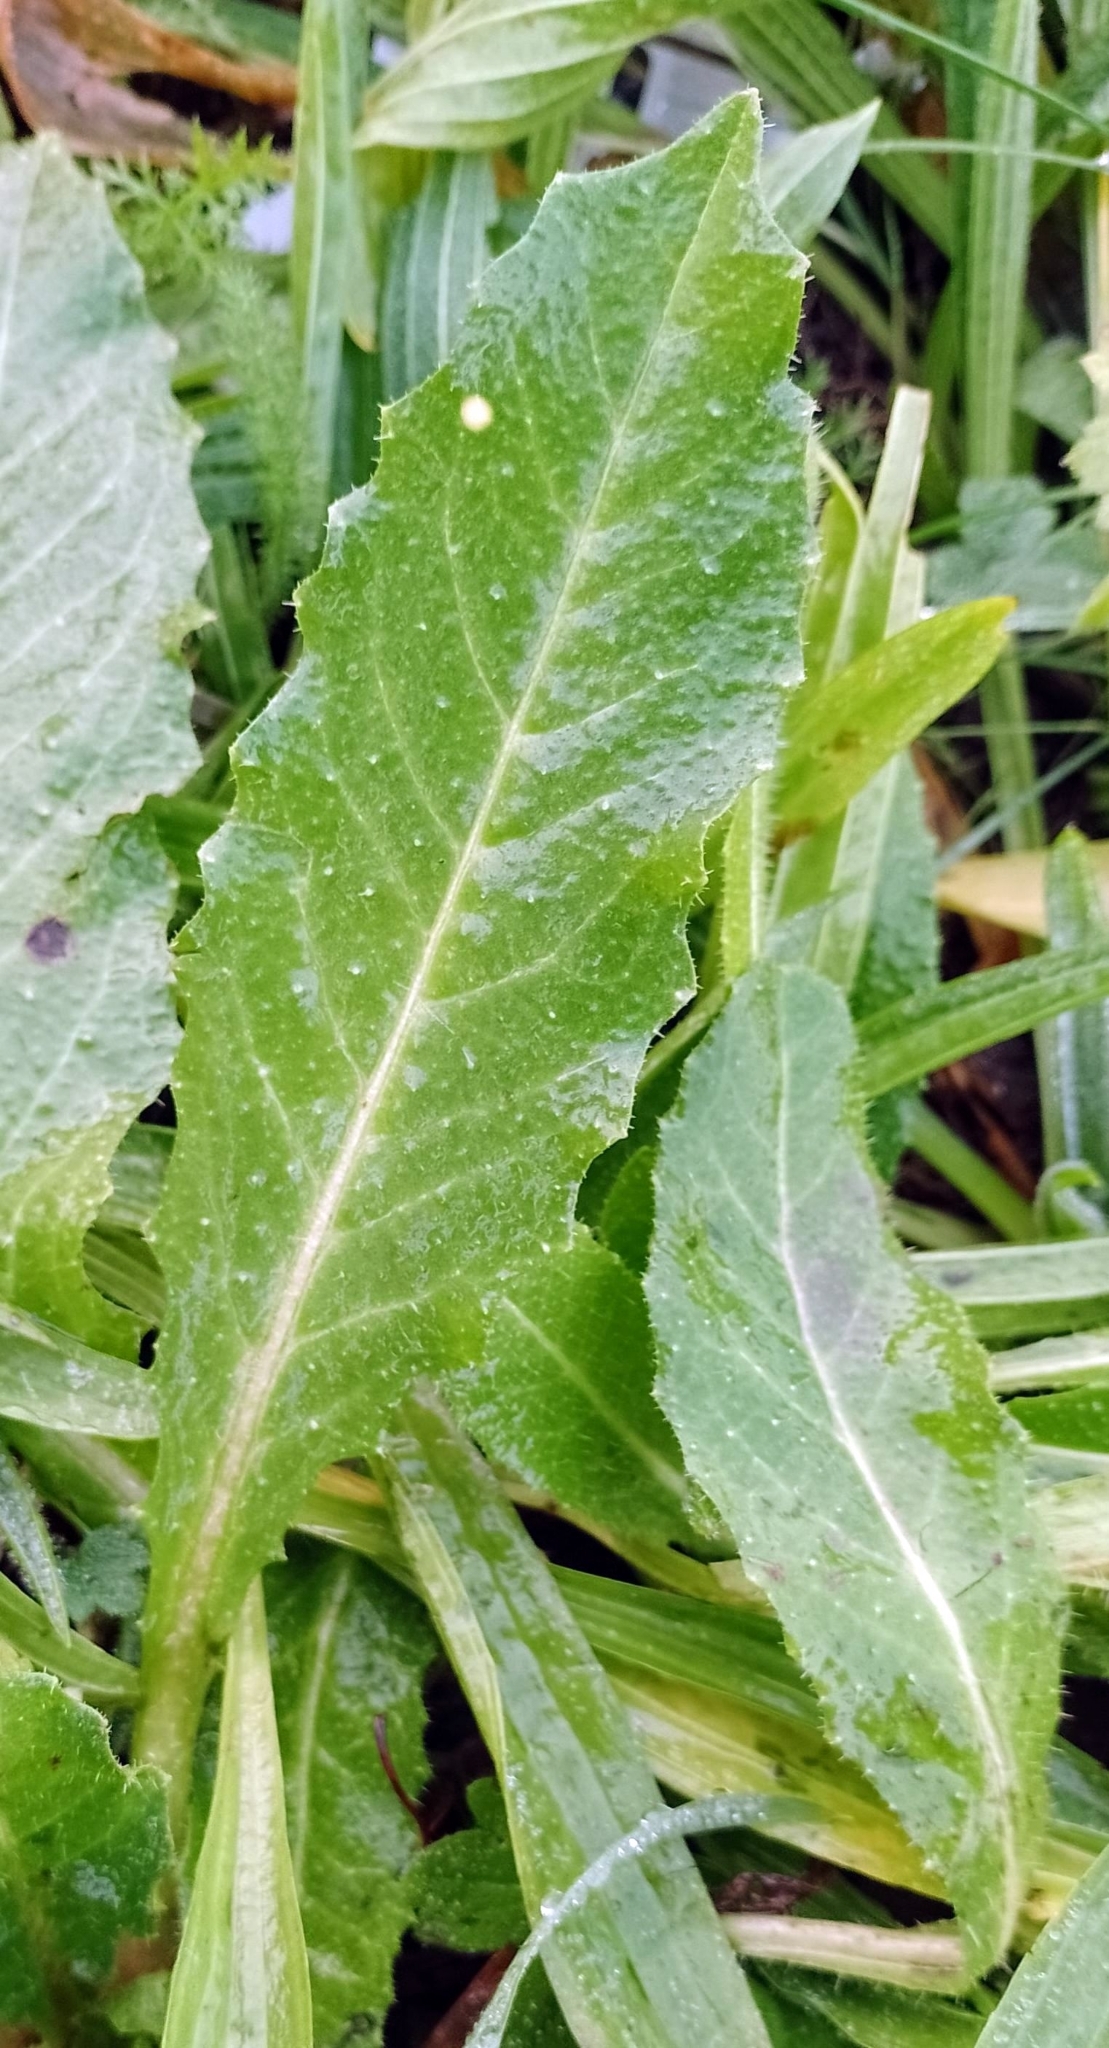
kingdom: Plantae
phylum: Tracheophyta
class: Magnoliopsida
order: Asterales
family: Asteraceae
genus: Helminthotheca
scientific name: Helminthotheca echioides
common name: Ox-tongue
